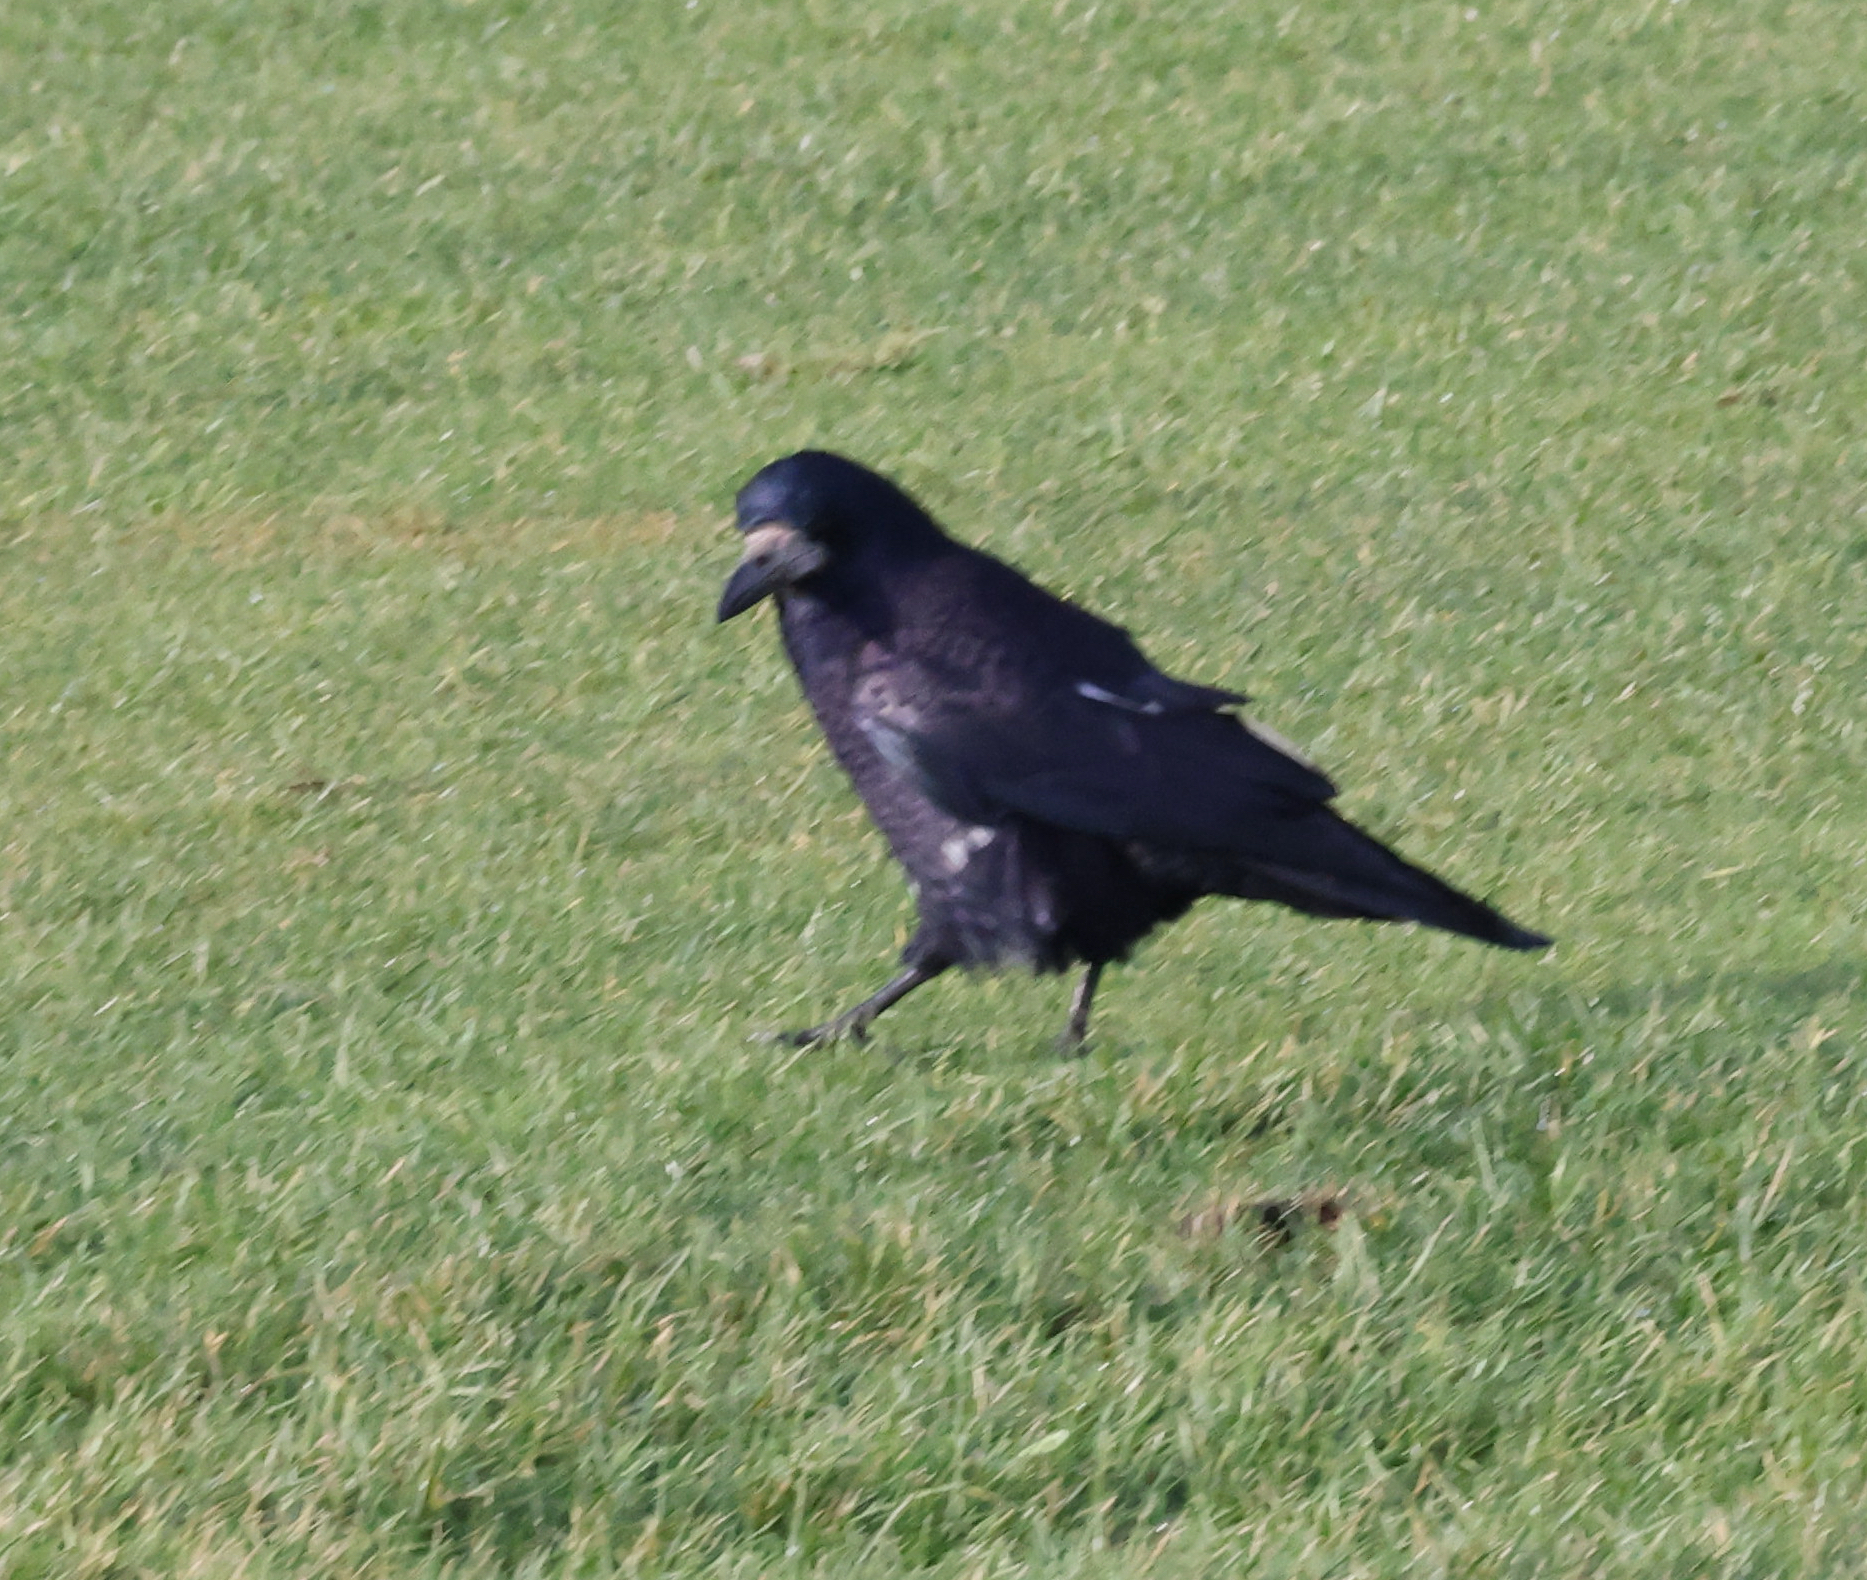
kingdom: Animalia
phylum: Chordata
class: Aves
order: Passeriformes
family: Corvidae
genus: Corvus
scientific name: Corvus frugilegus
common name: Rook
